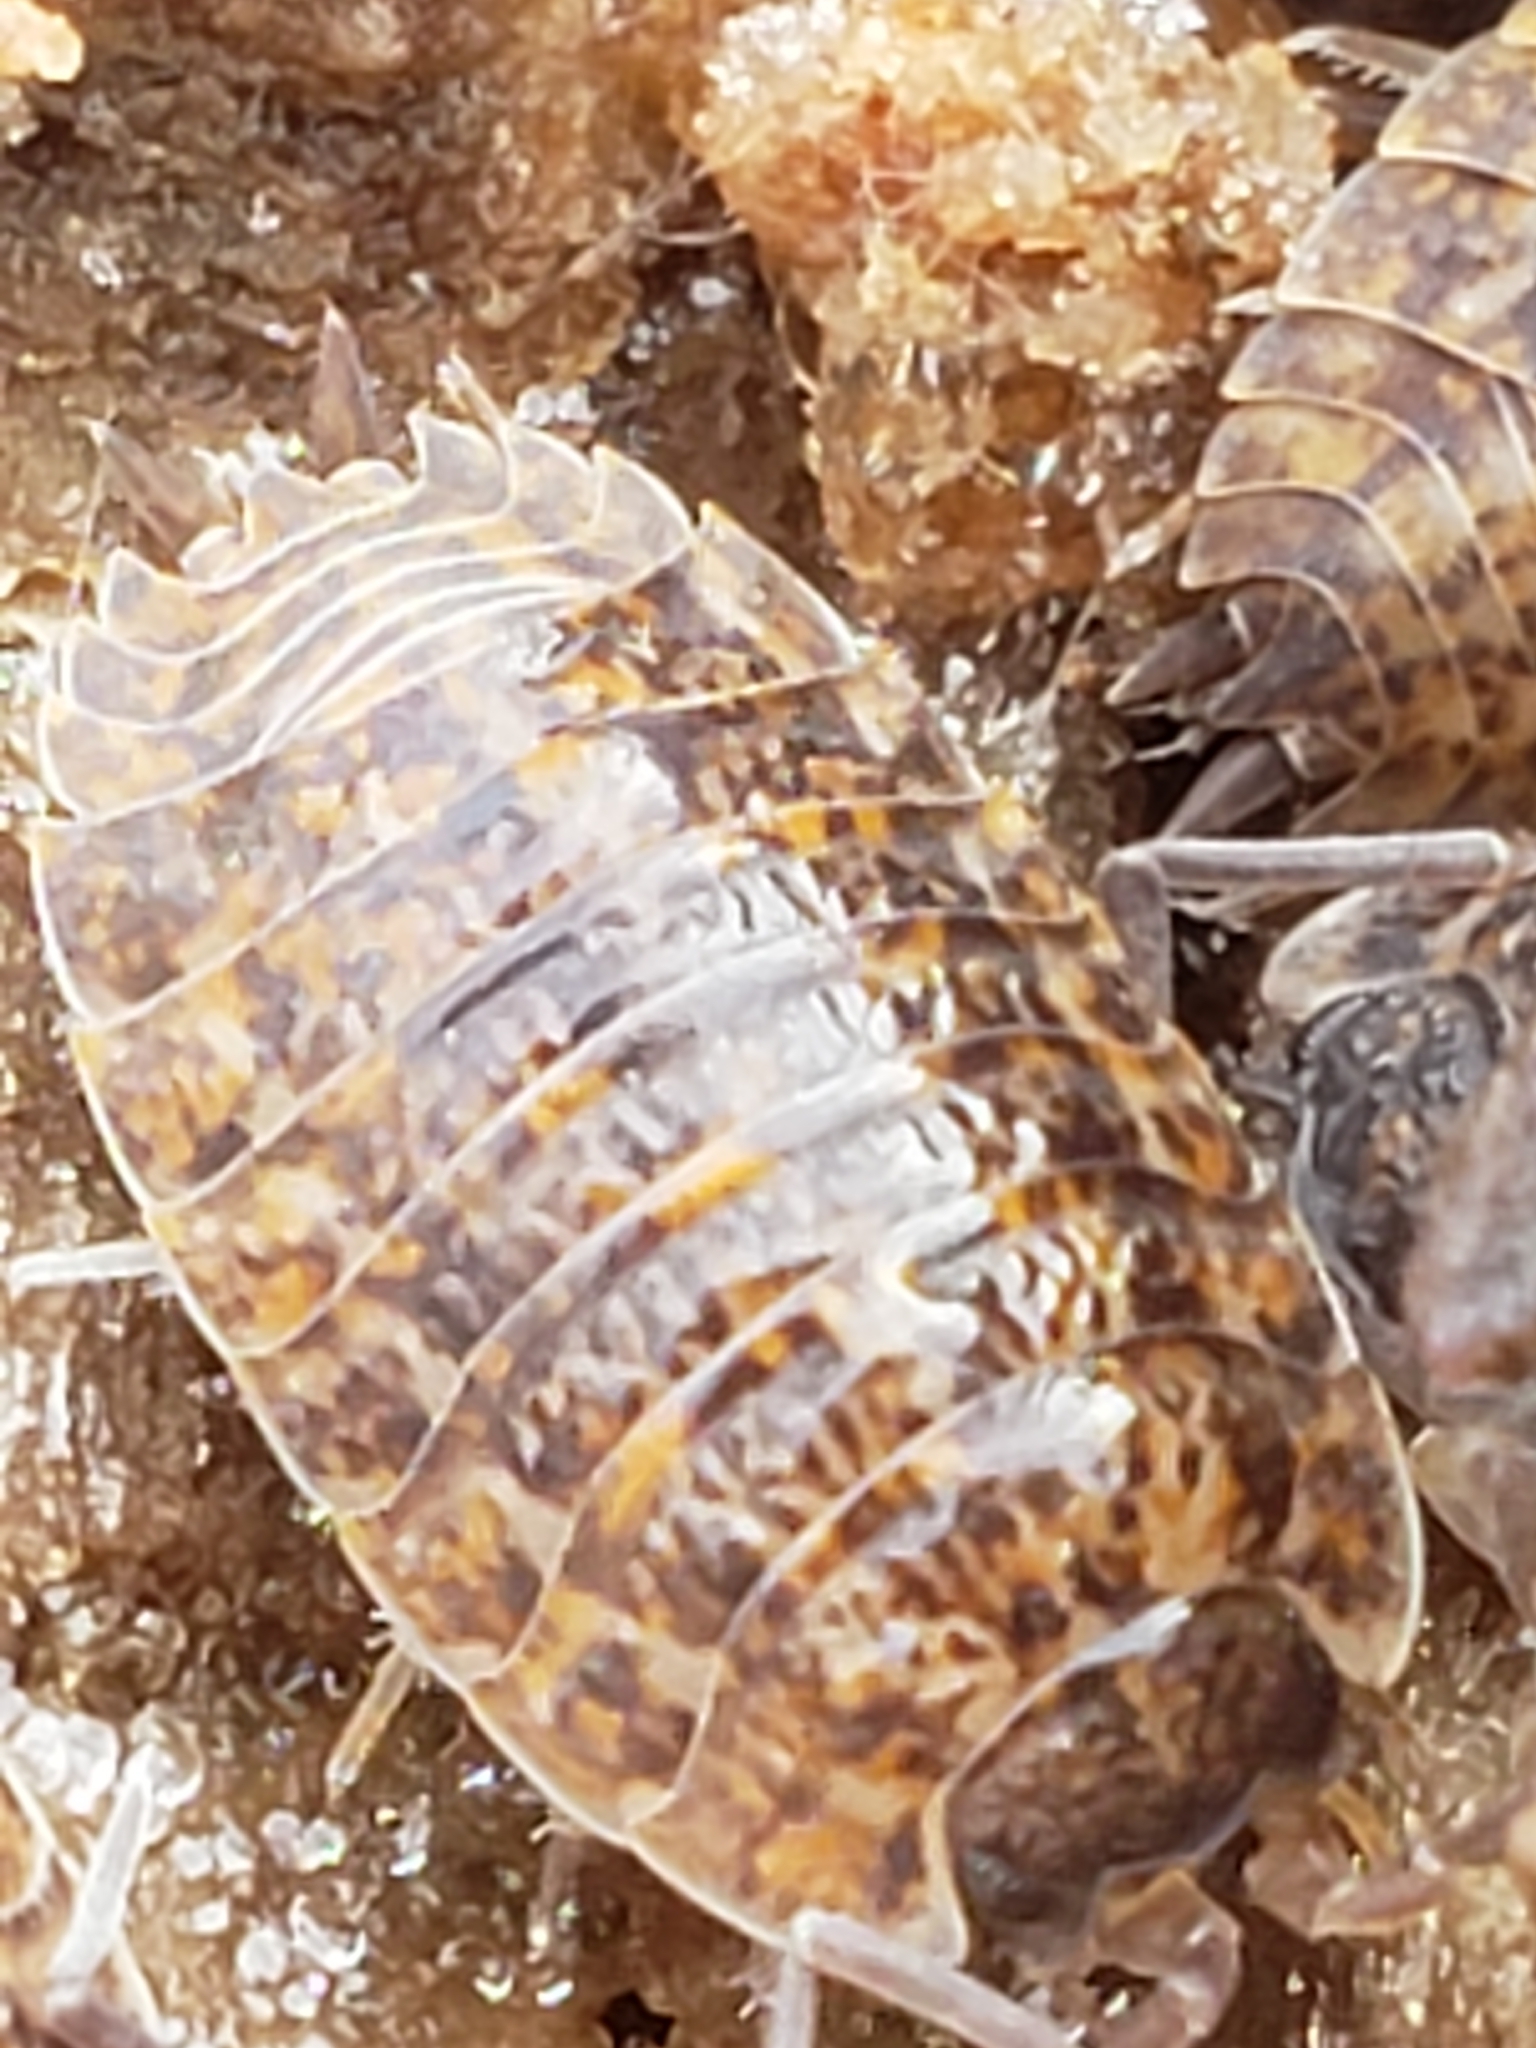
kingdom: Animalia
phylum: Arthropoda
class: Malacostraca
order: Isopoda
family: Trachelipodidae
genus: Trachelipus
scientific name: Trachelipus rathkii
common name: Isopod
